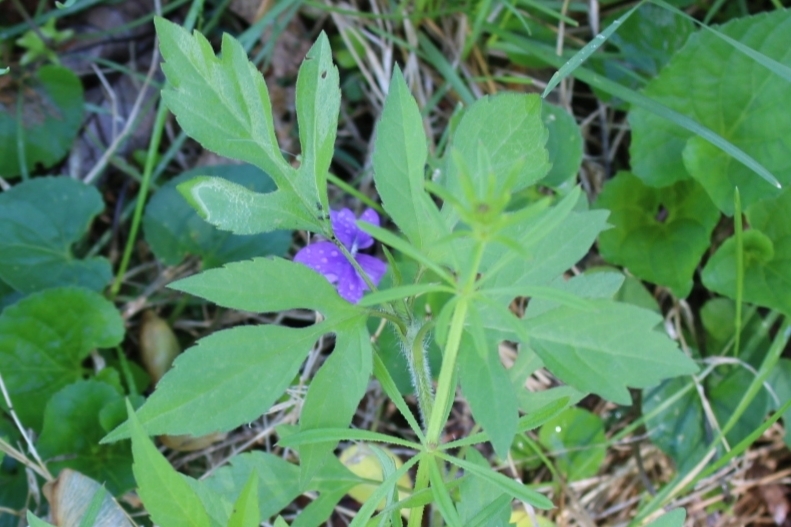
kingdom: Plantae
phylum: Tracheophyta
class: Magnoliopsida
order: Asterales
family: Asteraceae
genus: Ambrosia
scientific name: Ambrosia trifida
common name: Giant ragweed
